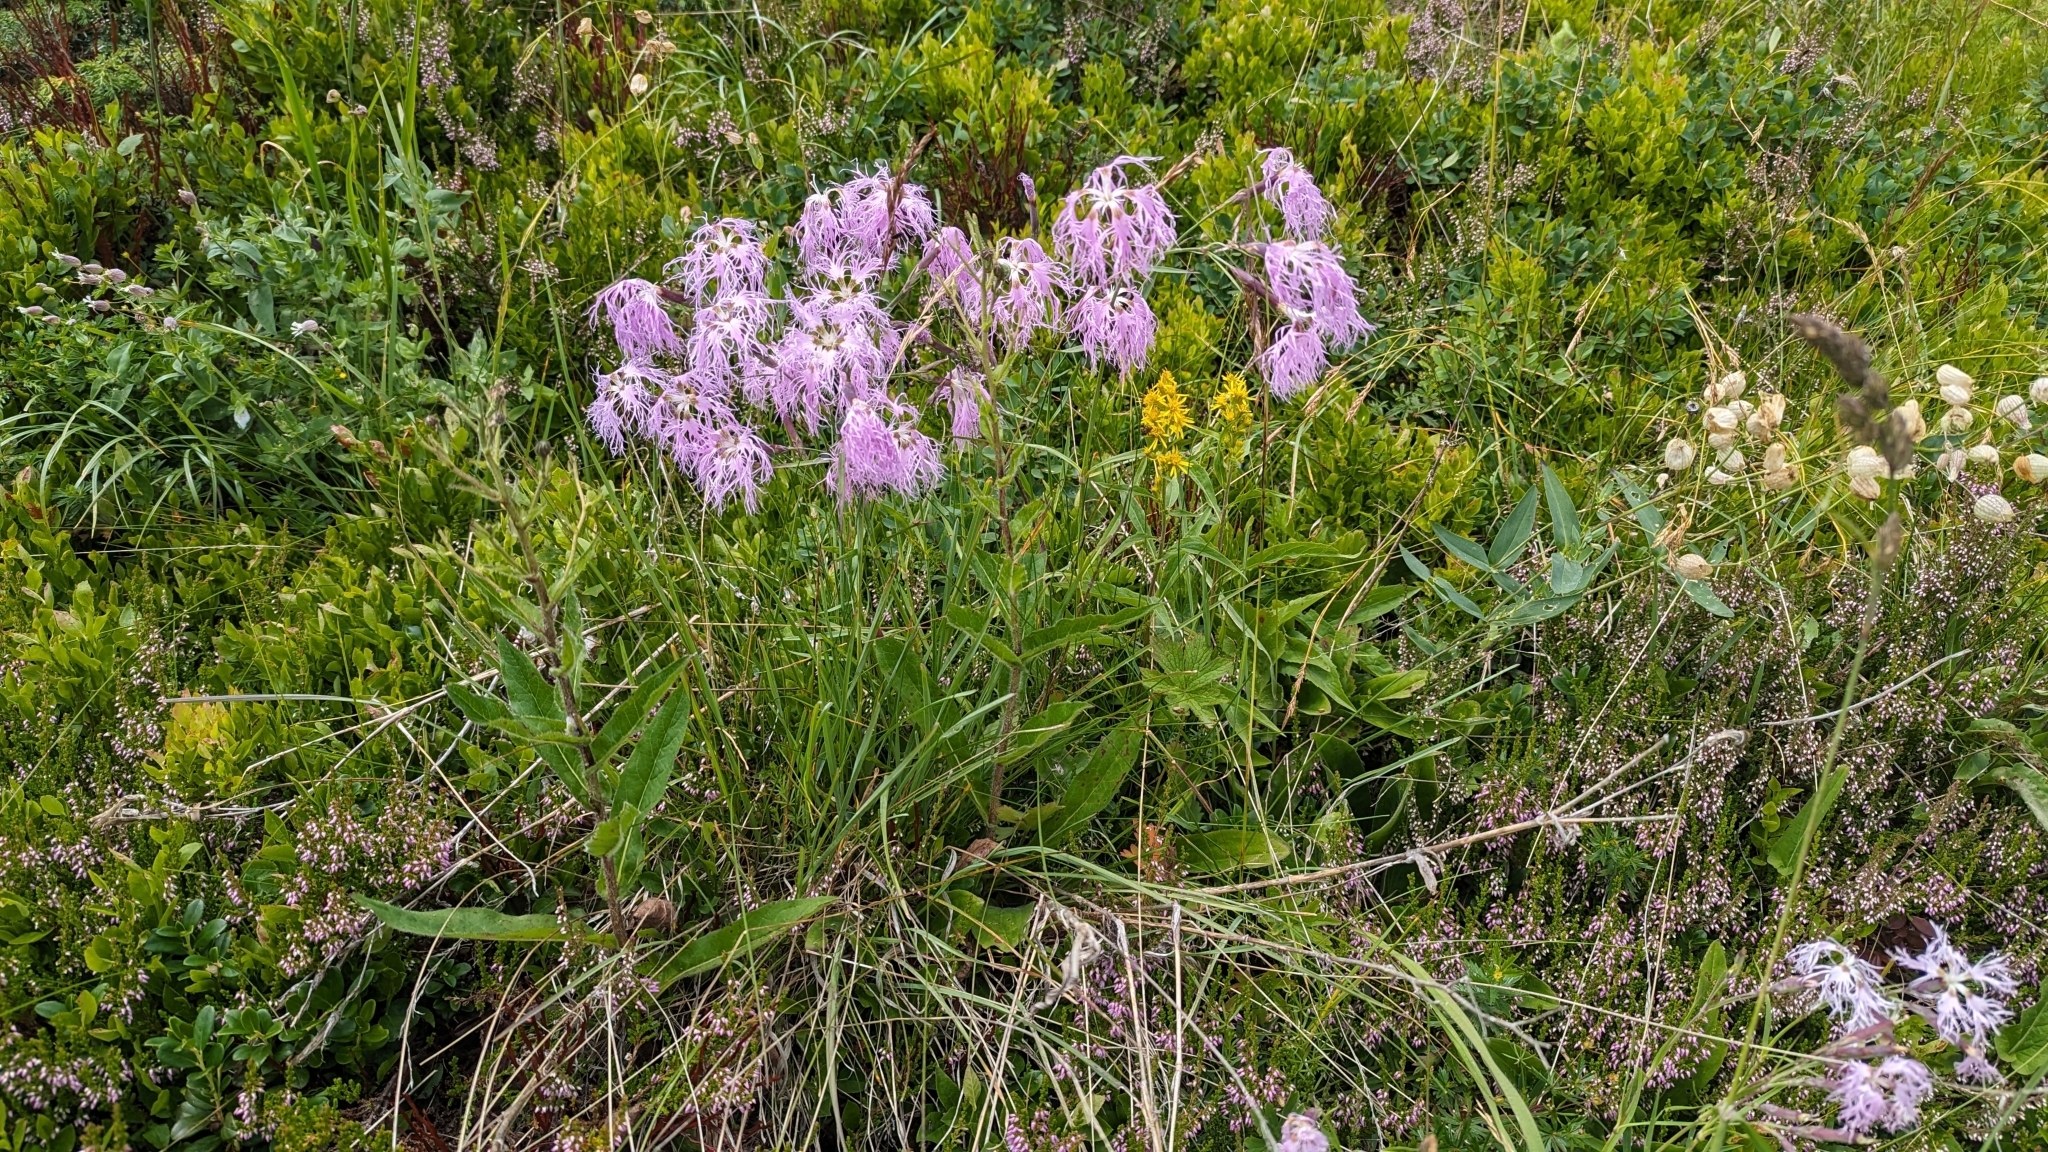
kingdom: Plantae
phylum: Tracheophyta
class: Magnoliopsida
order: Caryophyllales
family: Caryophyllaceae
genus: Dianthus
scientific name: Dianthus superbus
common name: Fringed pink
